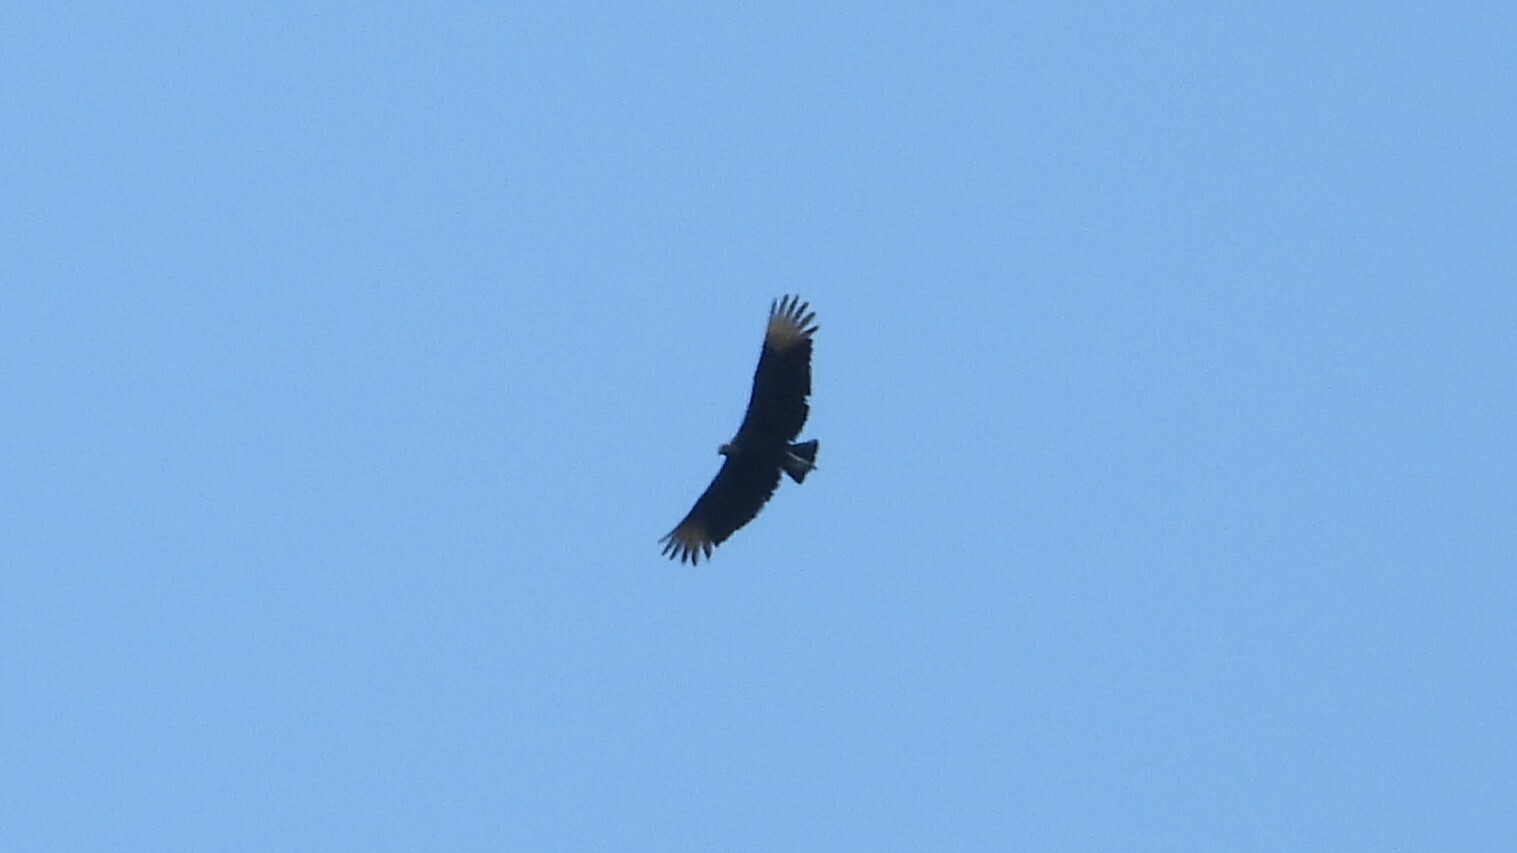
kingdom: Animalia
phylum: Chordata
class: Aves
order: Accipitriformes
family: Cathartidae
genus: Coragyps
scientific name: Coragyps atratus
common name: Black vulture
